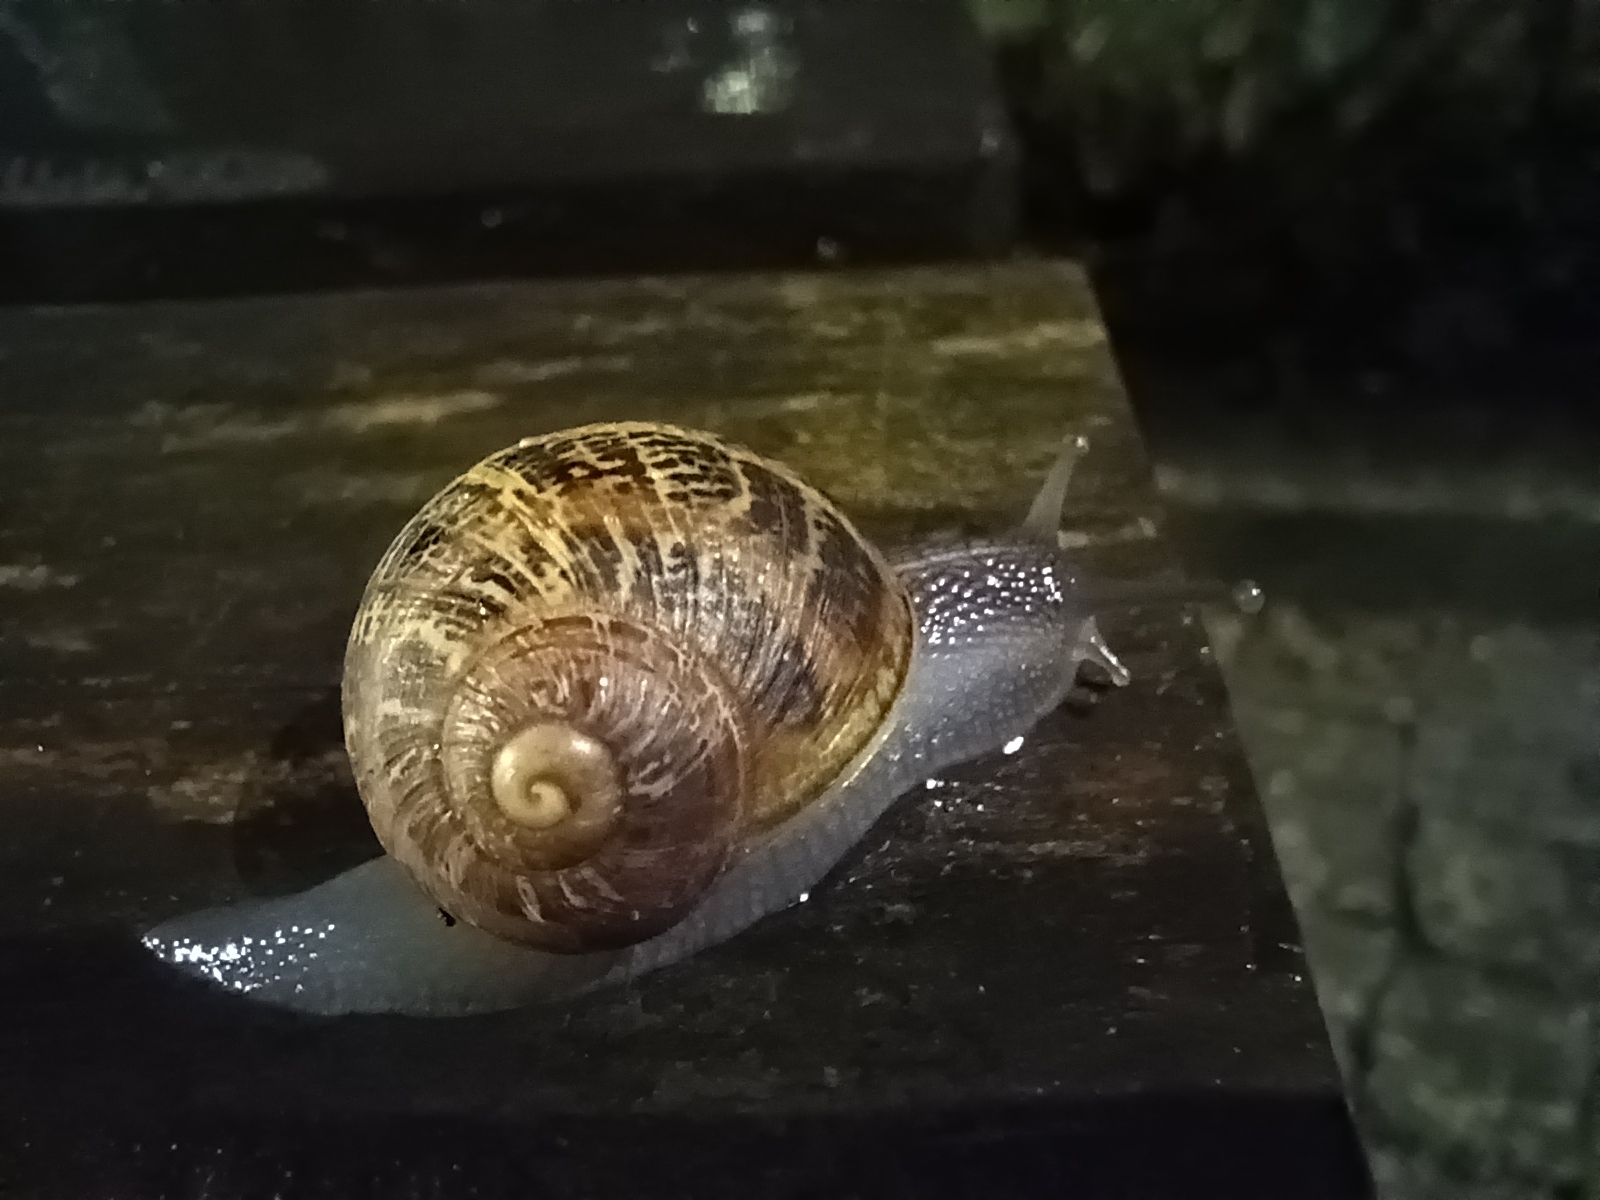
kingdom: Animalia
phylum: Mollusca
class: Gastropoda
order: Stylommatophora
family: Helicidae
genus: Cornu
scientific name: Cornu aspersum
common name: Brown garden snail
